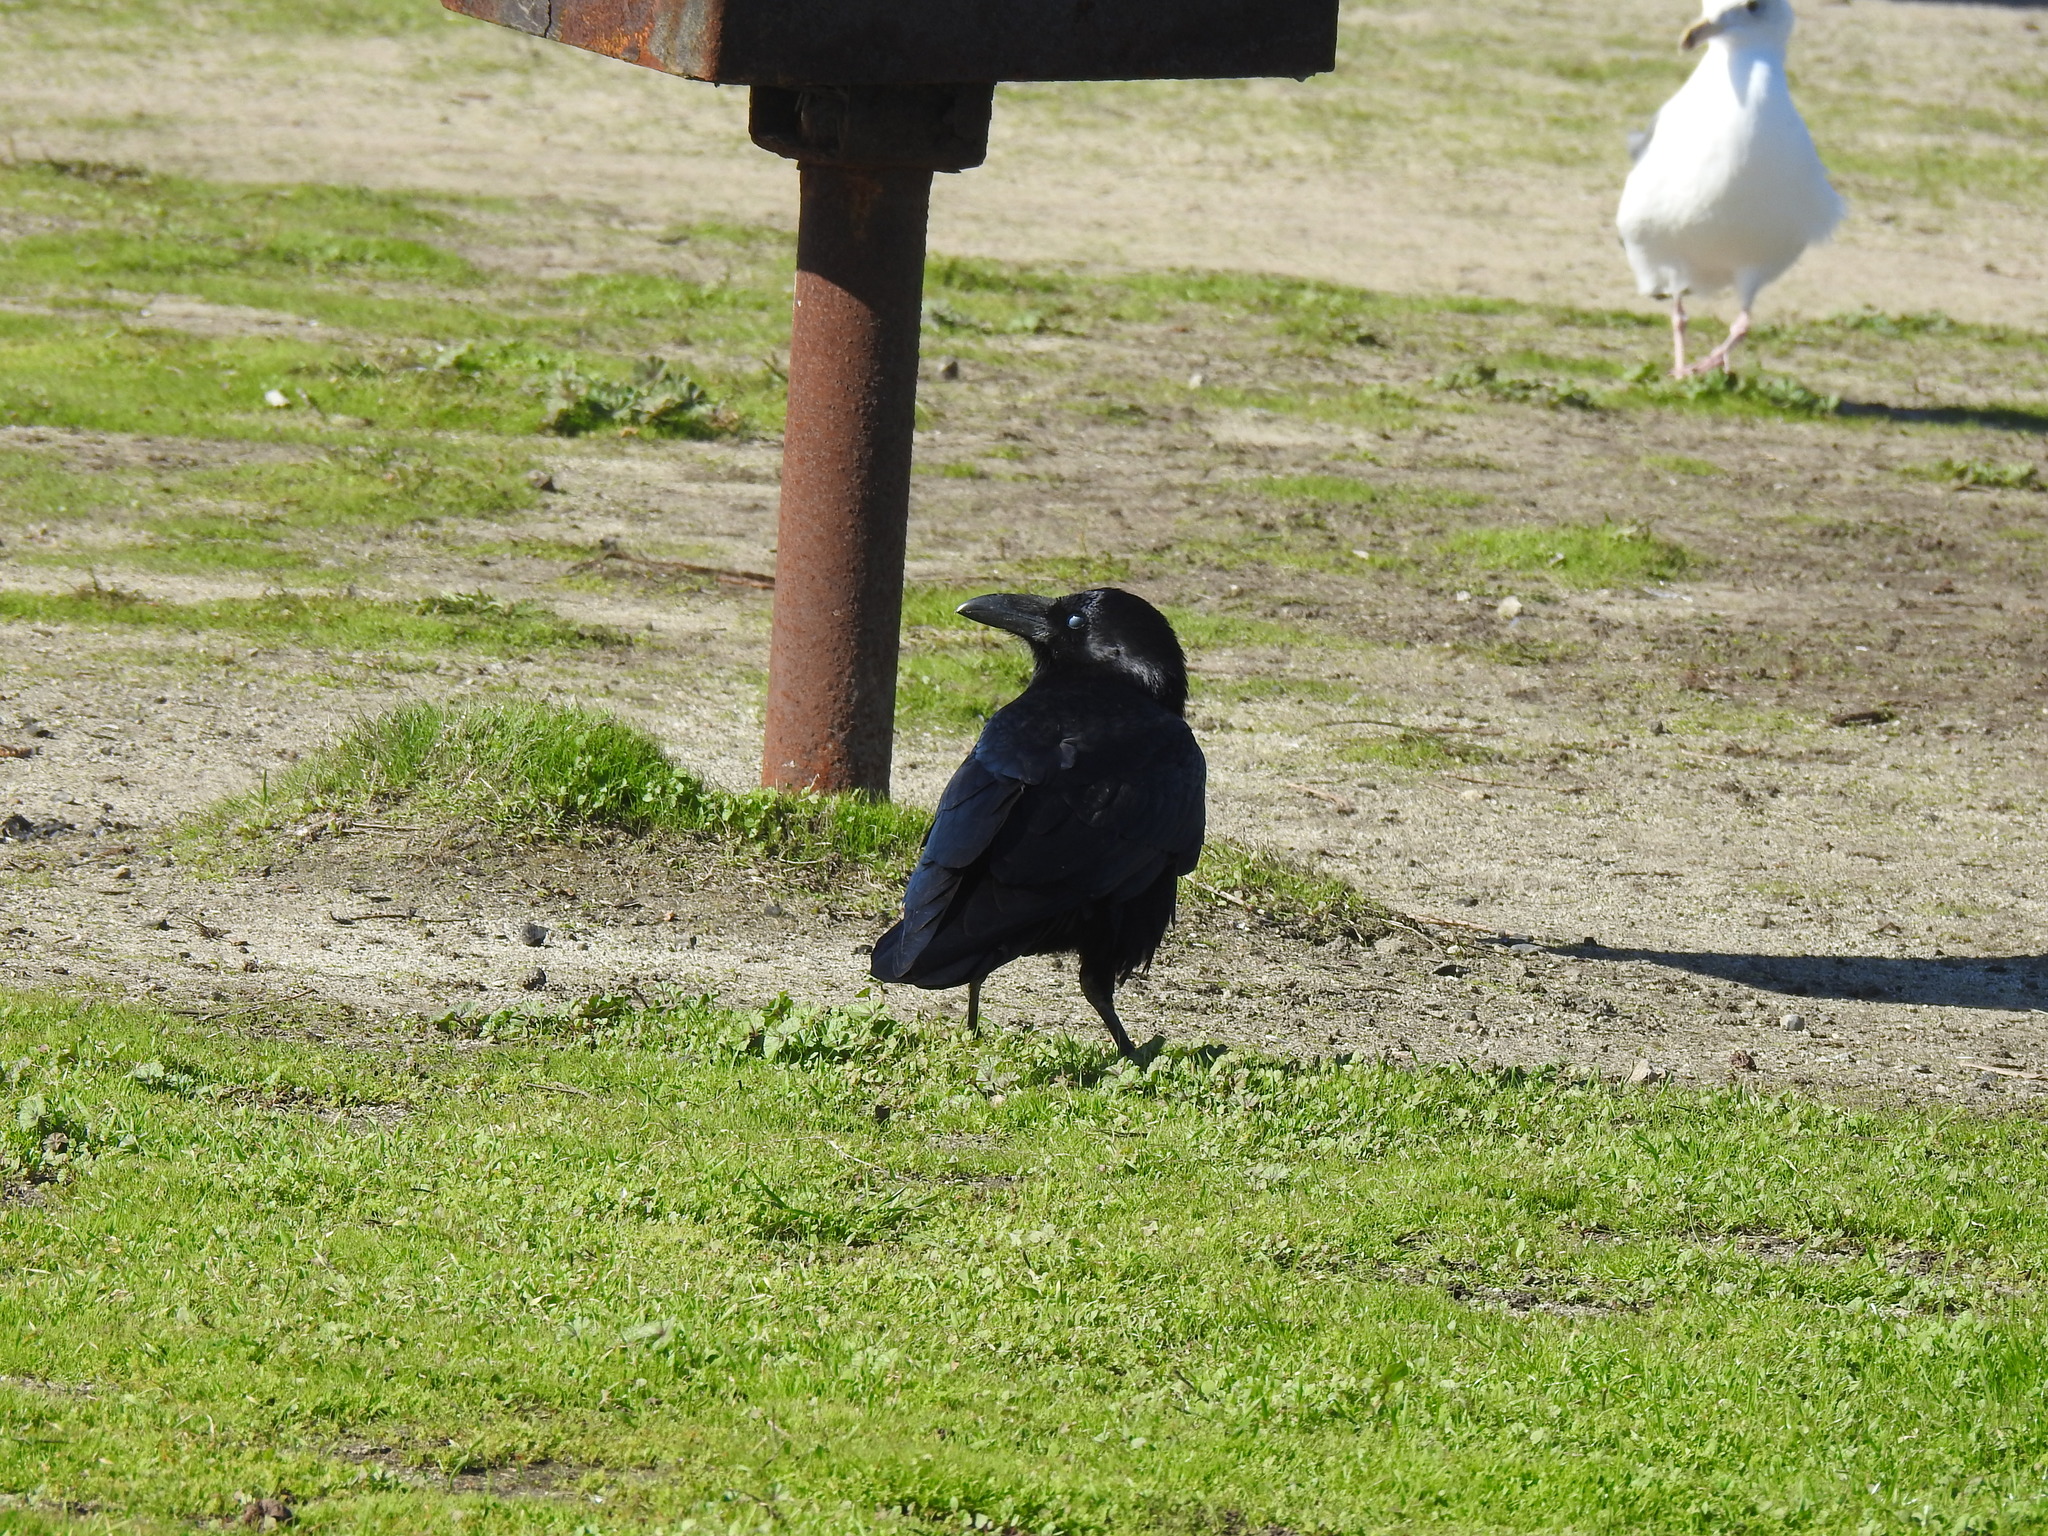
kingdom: Animalia
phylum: Chordata
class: Aves
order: Passeriformes
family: Corvidae
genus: Corvus
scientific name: Corvus corax
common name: Common raven
